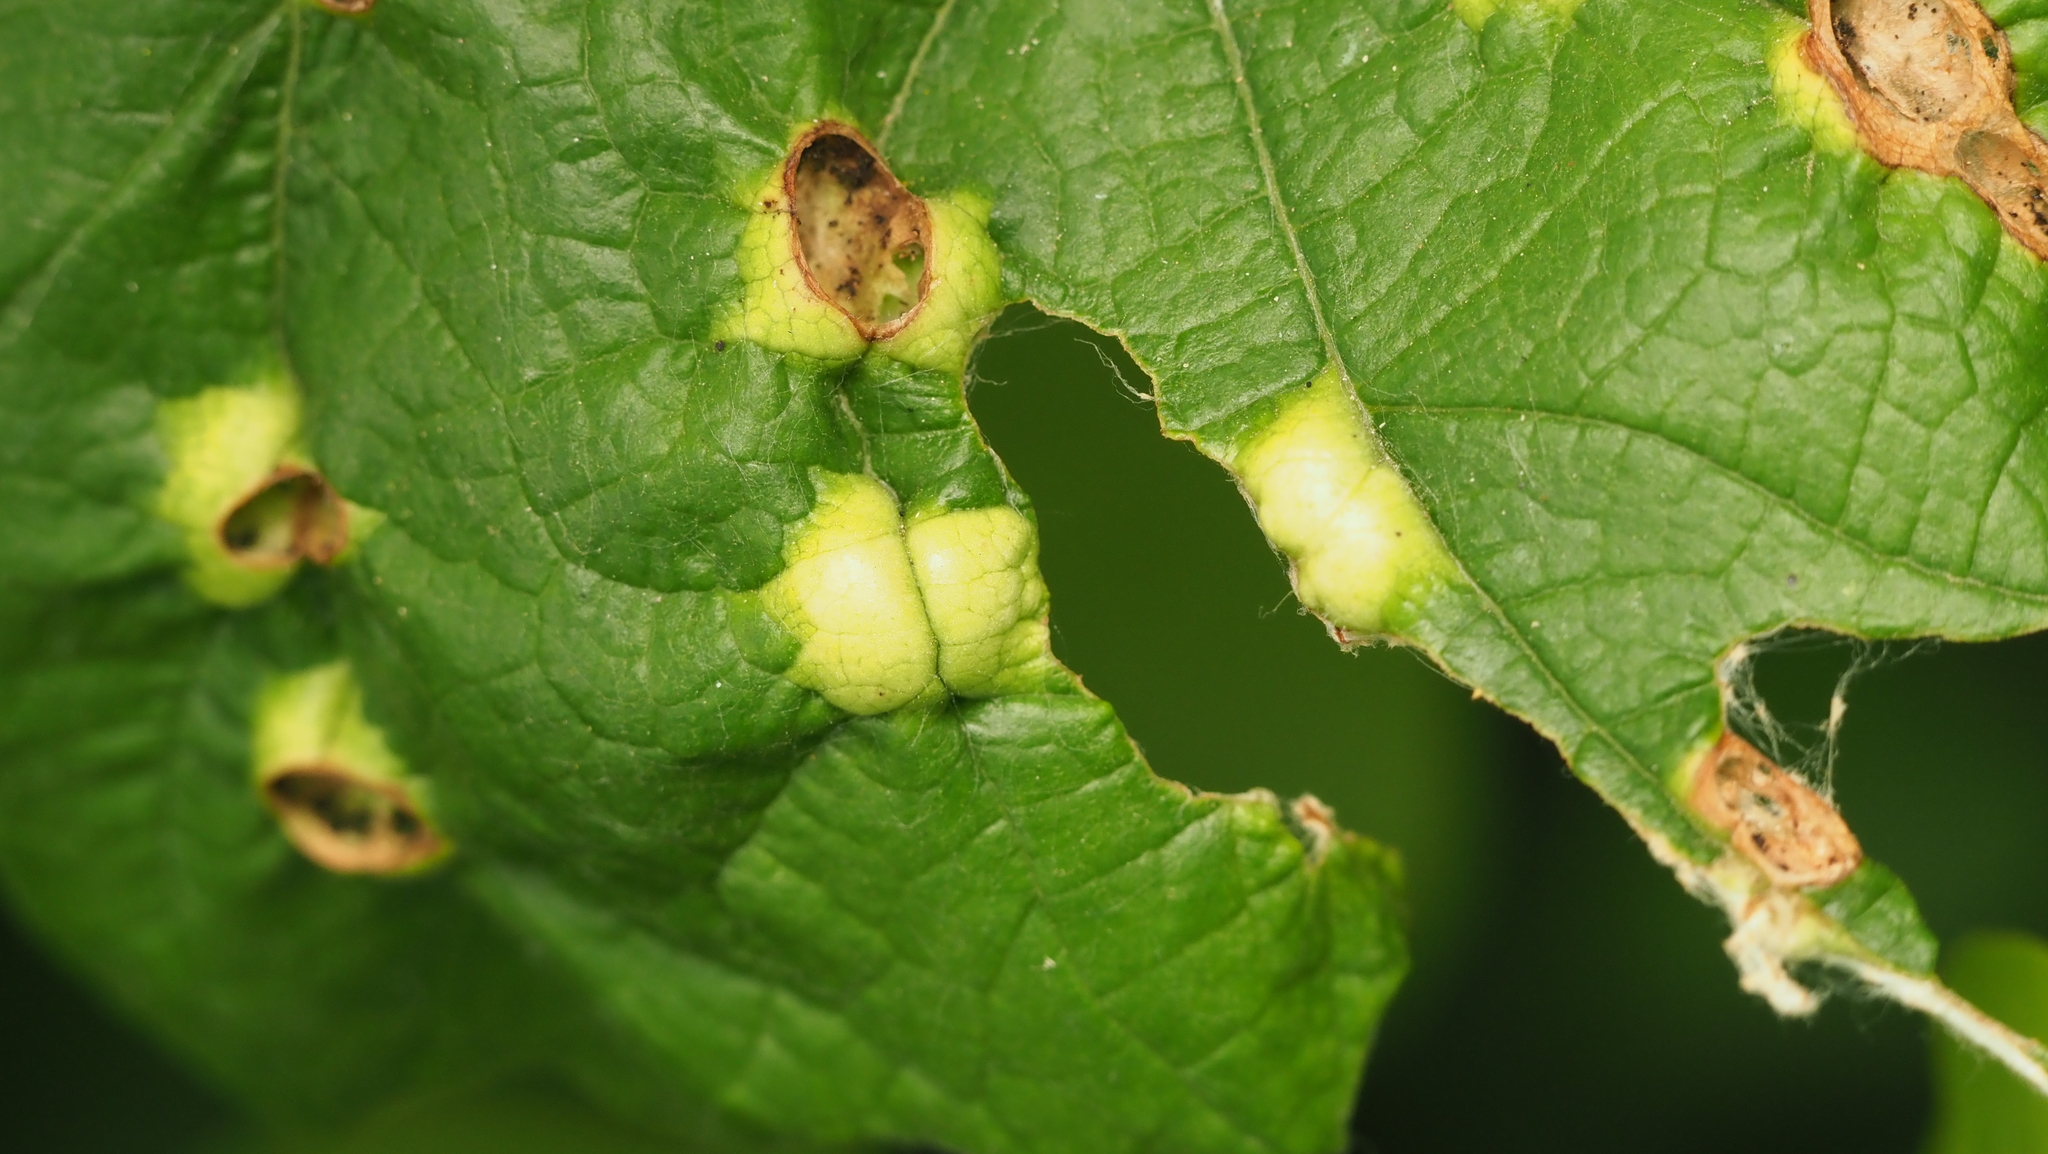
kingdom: Animalia
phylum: Arthropoda
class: Insecta
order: Lepidoptera
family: Heliozelidae
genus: Heliozela
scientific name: Heliozela aesella
